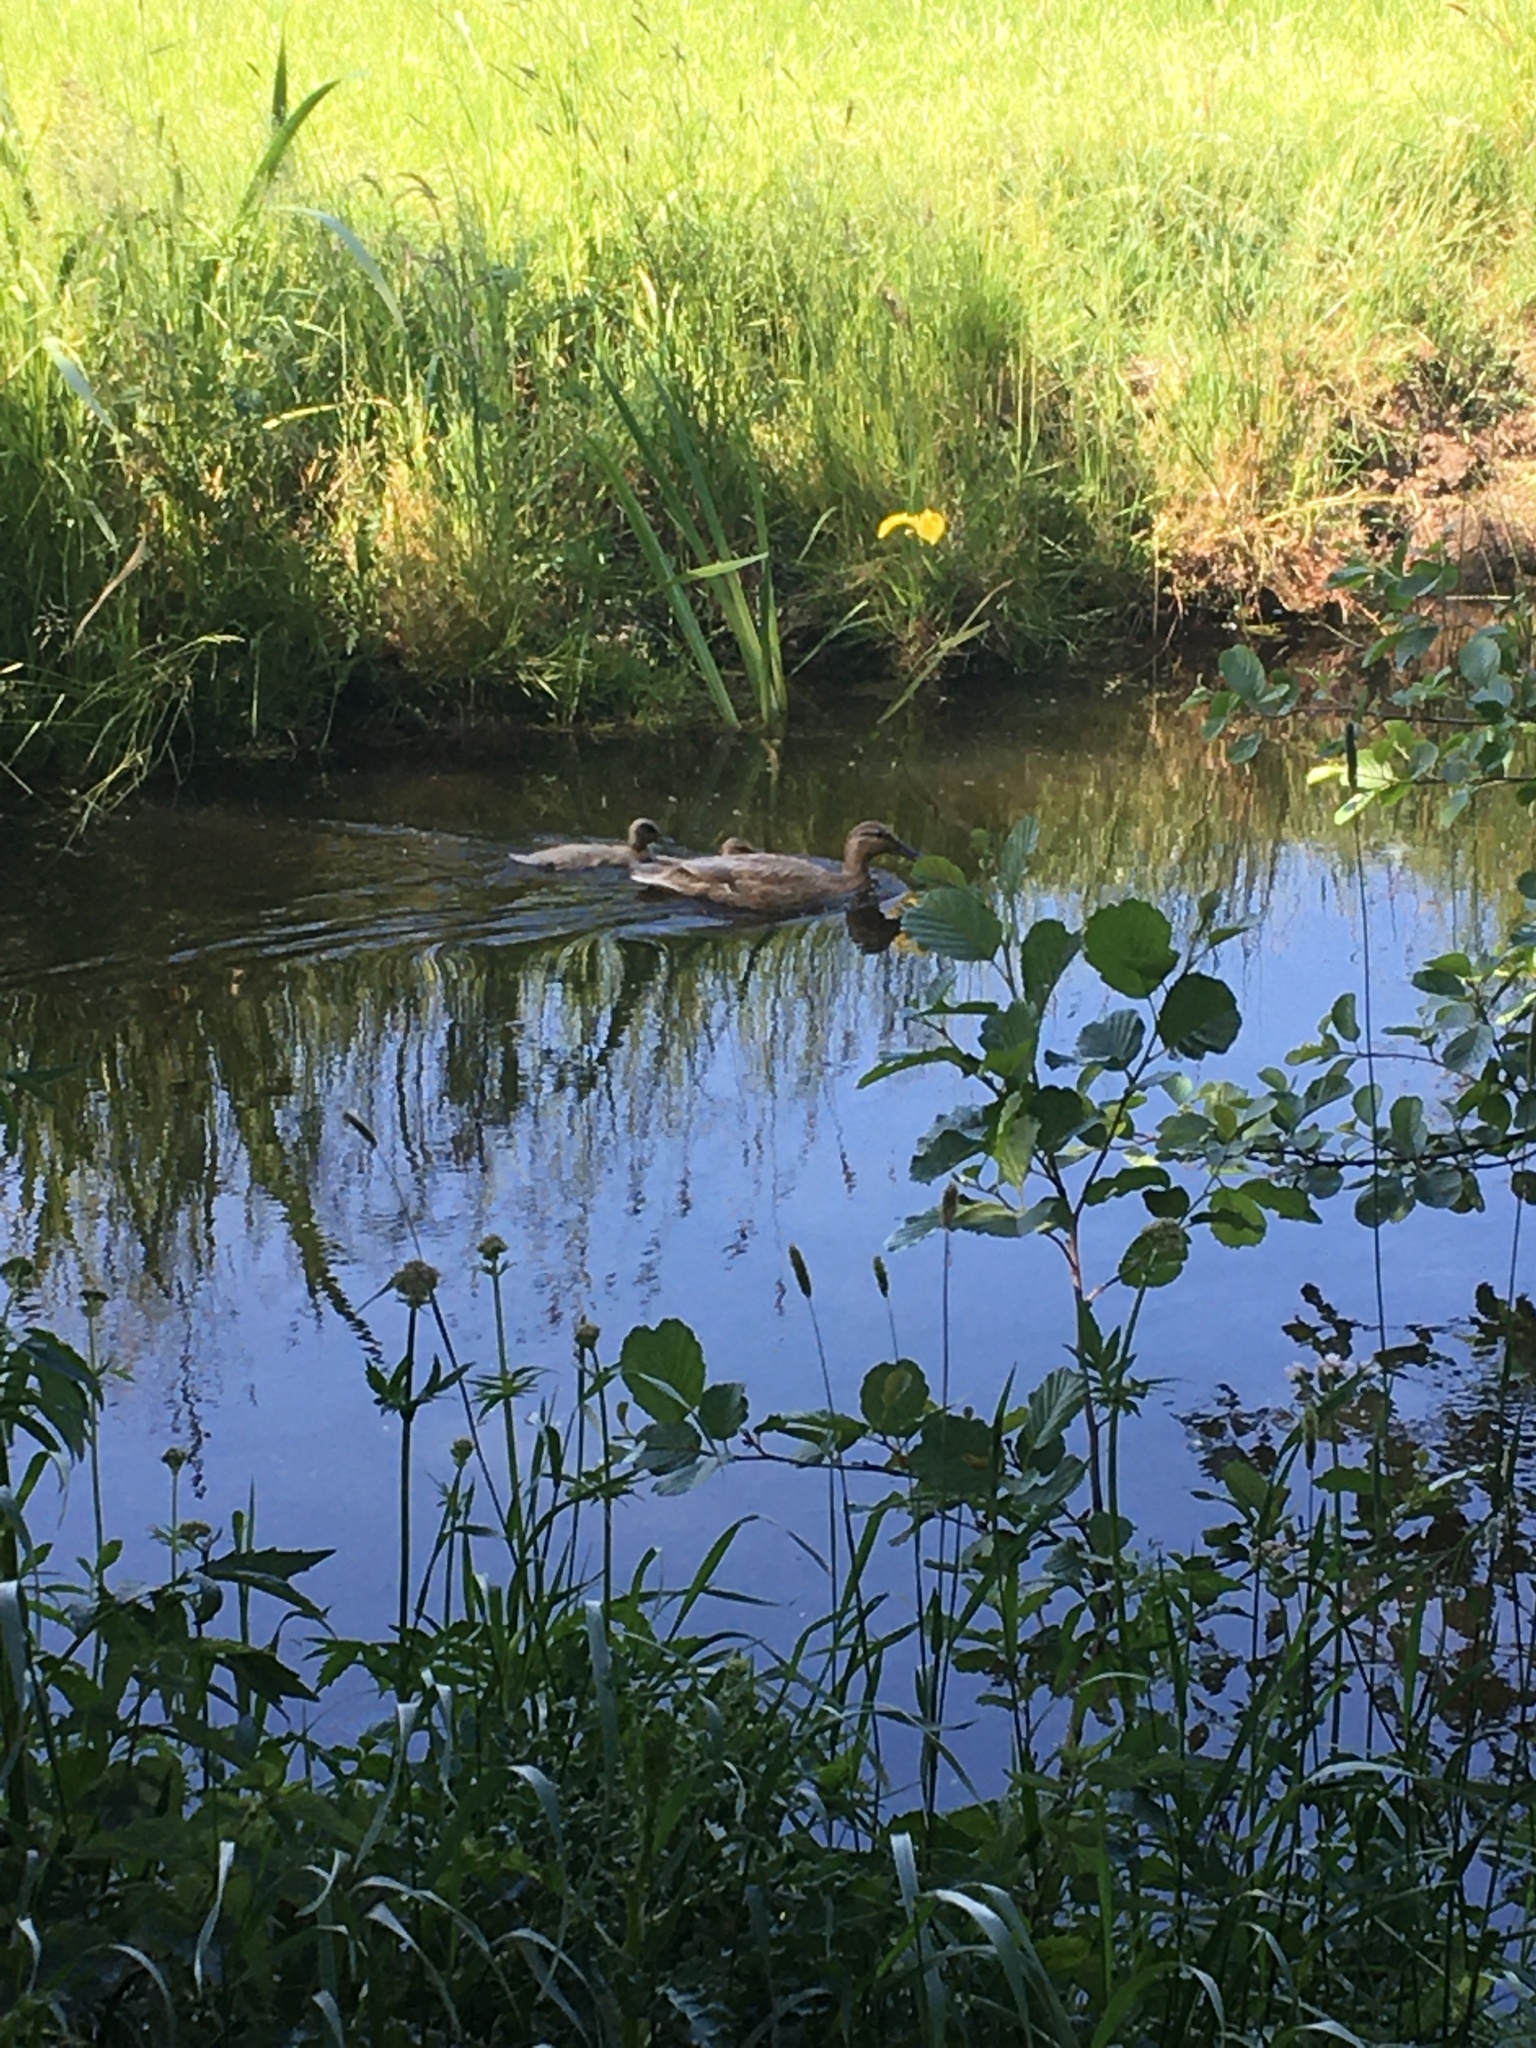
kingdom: Animalia
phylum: Chordata
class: Aves
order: Anseriformes
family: Anatidae
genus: Mareca
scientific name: Mareca strepera
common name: Gadwall
